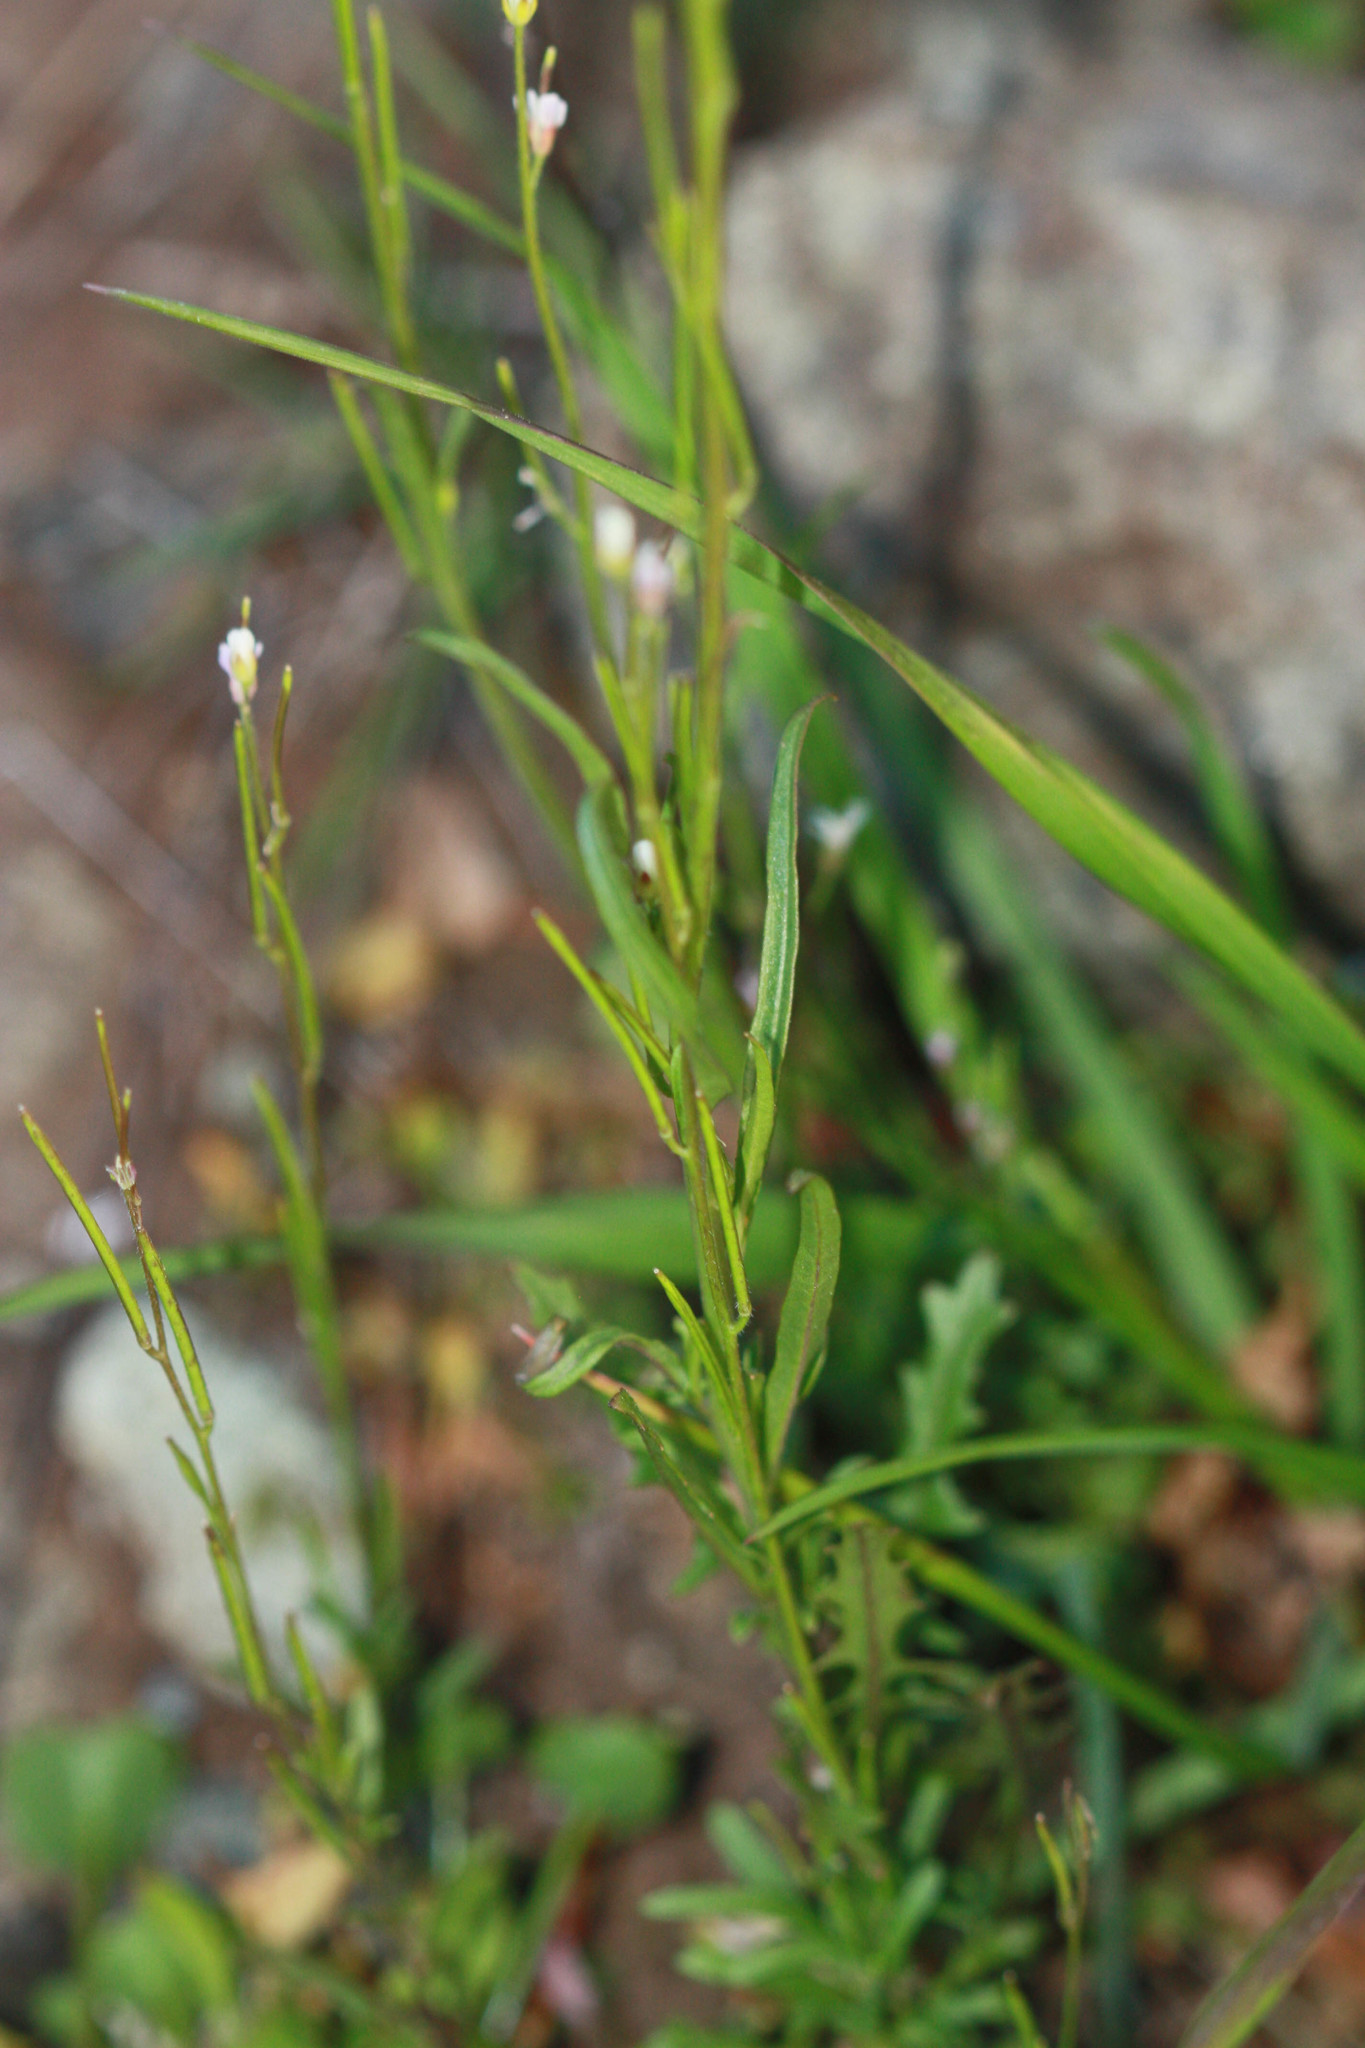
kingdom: Plantae
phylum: Tracheophyta
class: Magnoliopsida
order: Brassicales
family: Brassicaceae
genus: Streptanthus
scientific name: Streptanthus lasiophyllus
